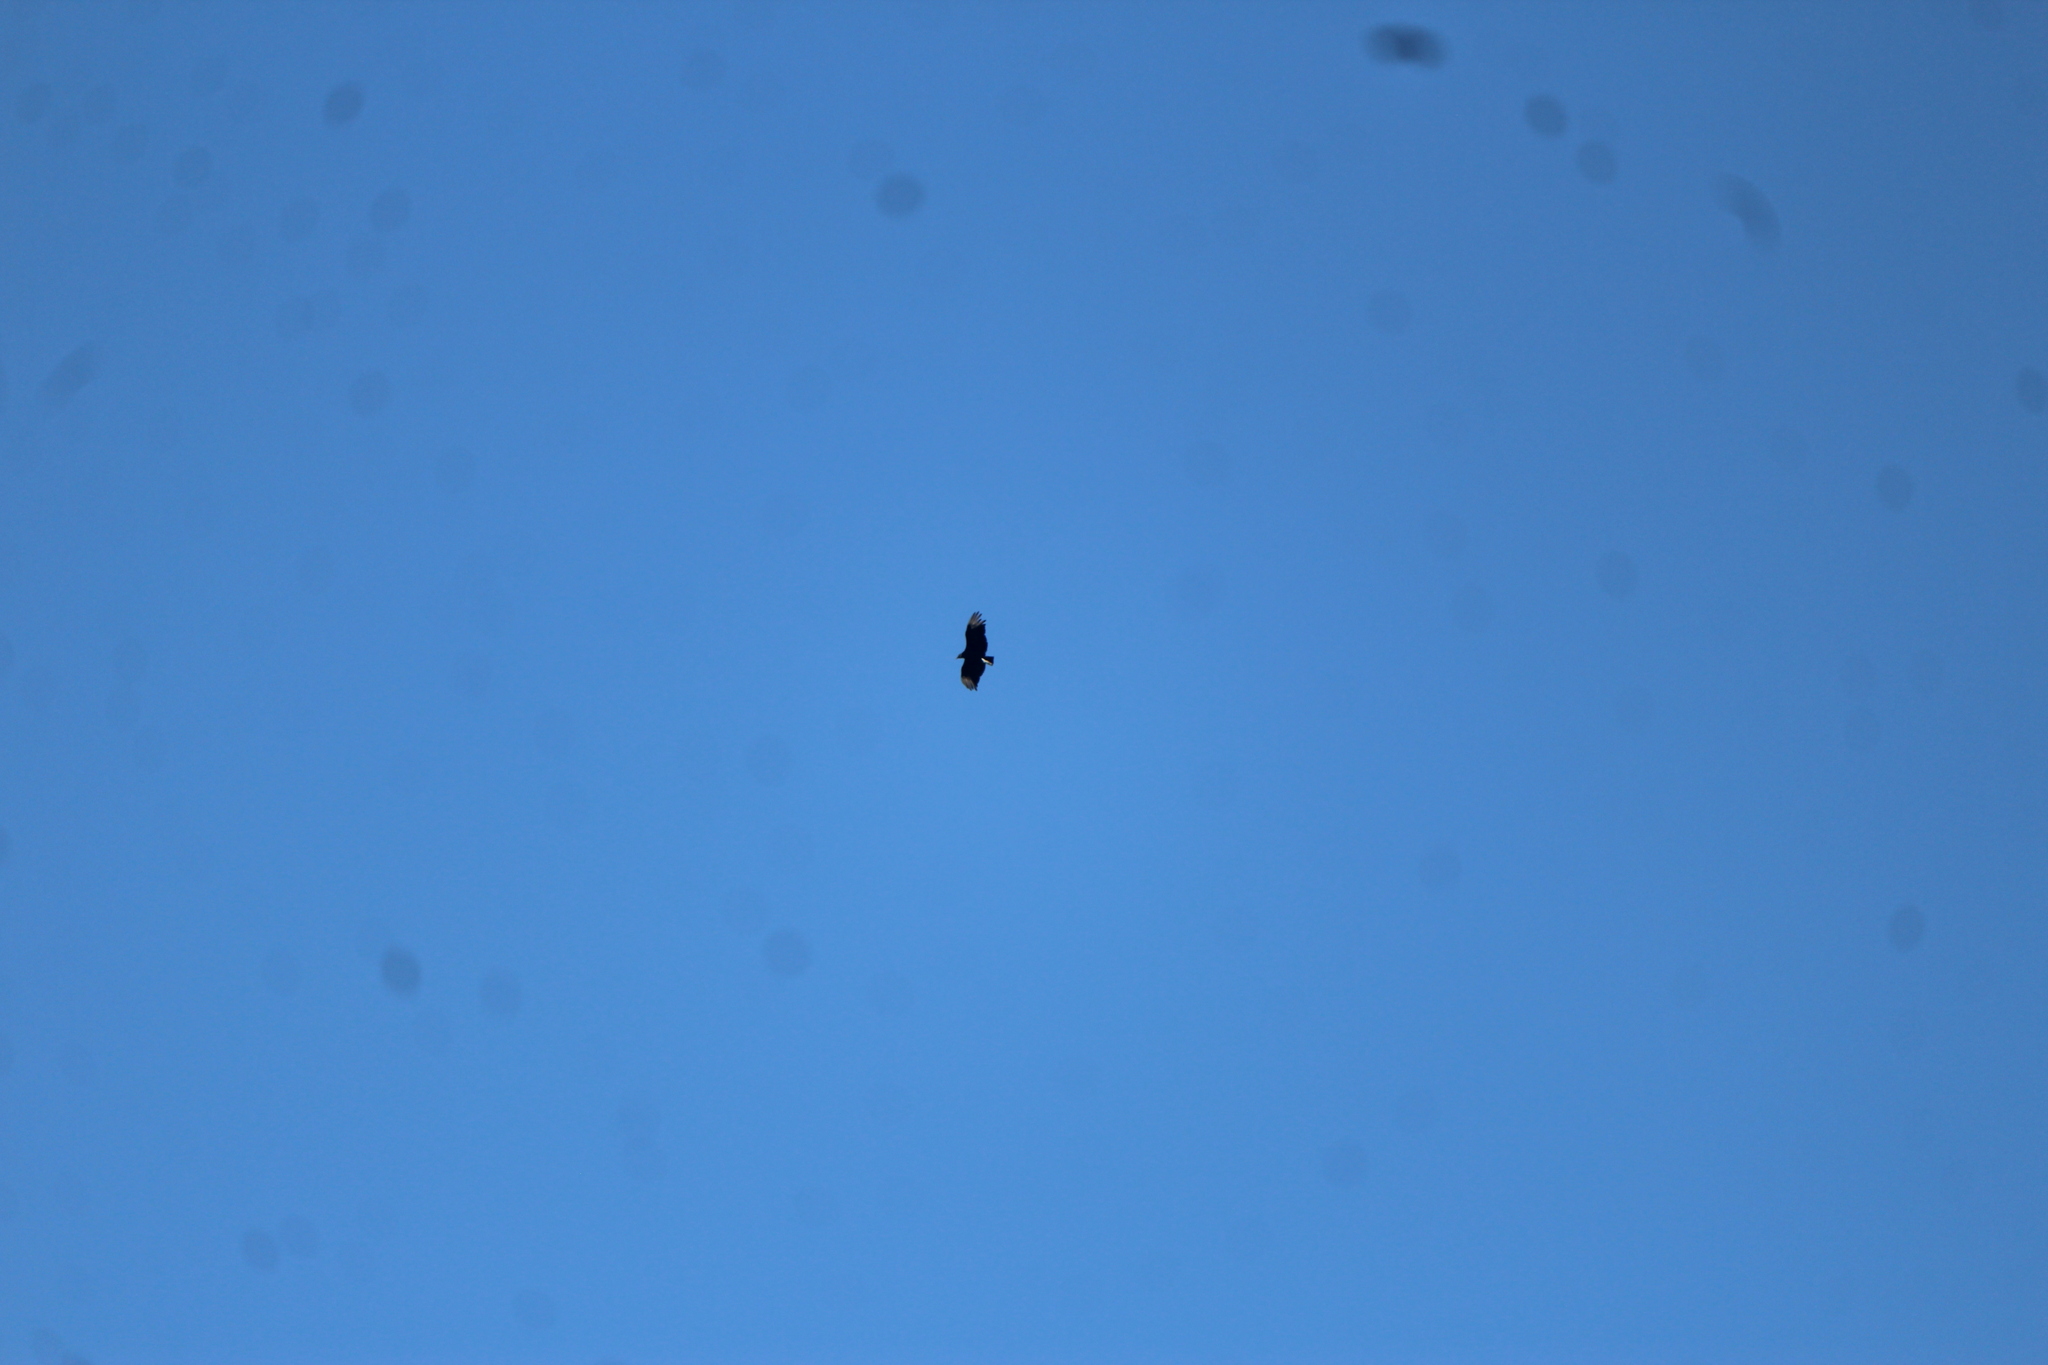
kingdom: Animalia
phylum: Chordata
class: Aves
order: Accipitriformes
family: Cathartidae
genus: Coragyps
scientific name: Coragyps atratus
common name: Black vulture
